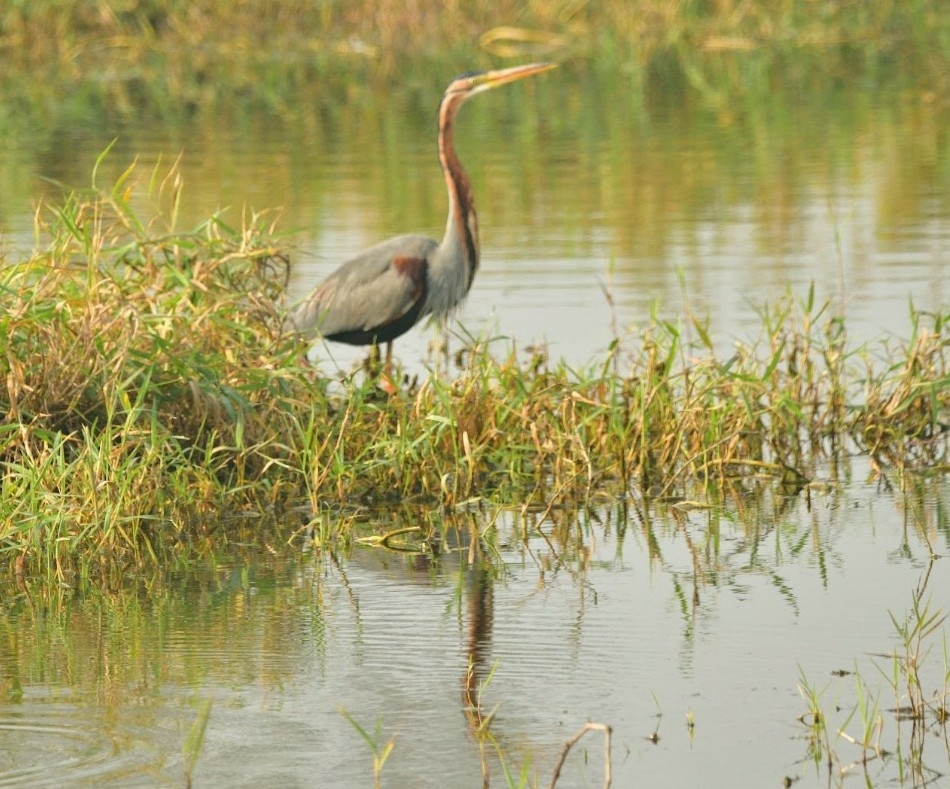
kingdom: Animalia
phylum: Chordata
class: Aves
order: Pelecaniformes
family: Ardeidae
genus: Ardea
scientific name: Ardea purpurea
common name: Purple heron
